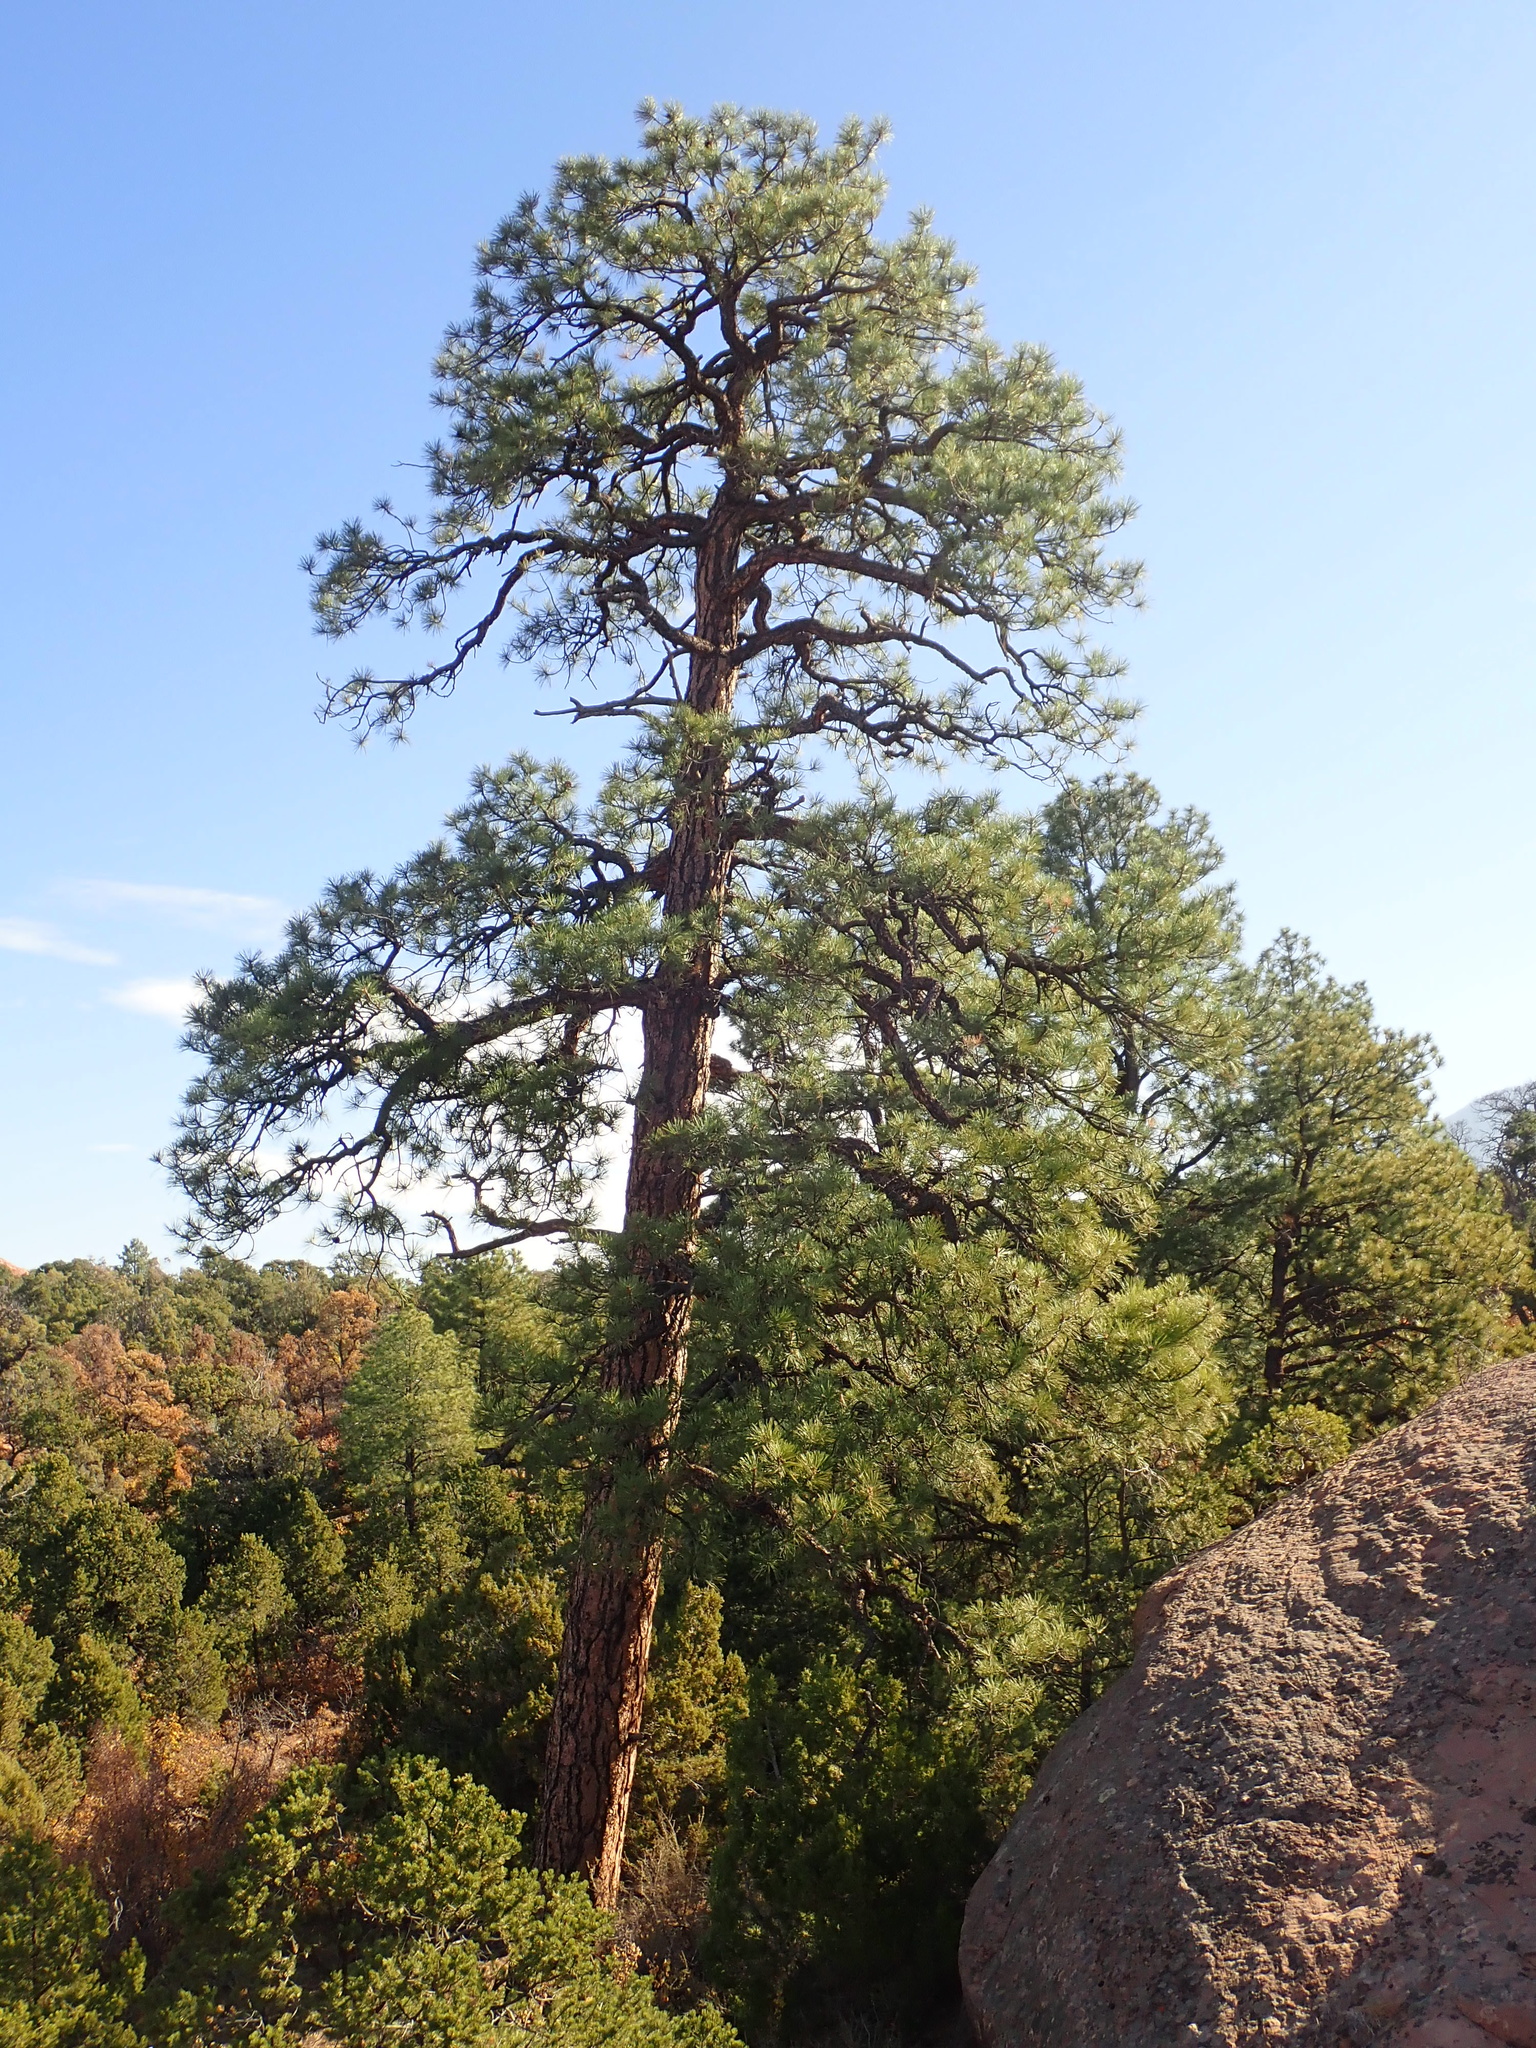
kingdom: Plantae
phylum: Tracheophyta
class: Pinopsida
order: Pinales
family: Pinaceae
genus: Pinus
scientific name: Pinus ponderosa
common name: Western yellow-pine
